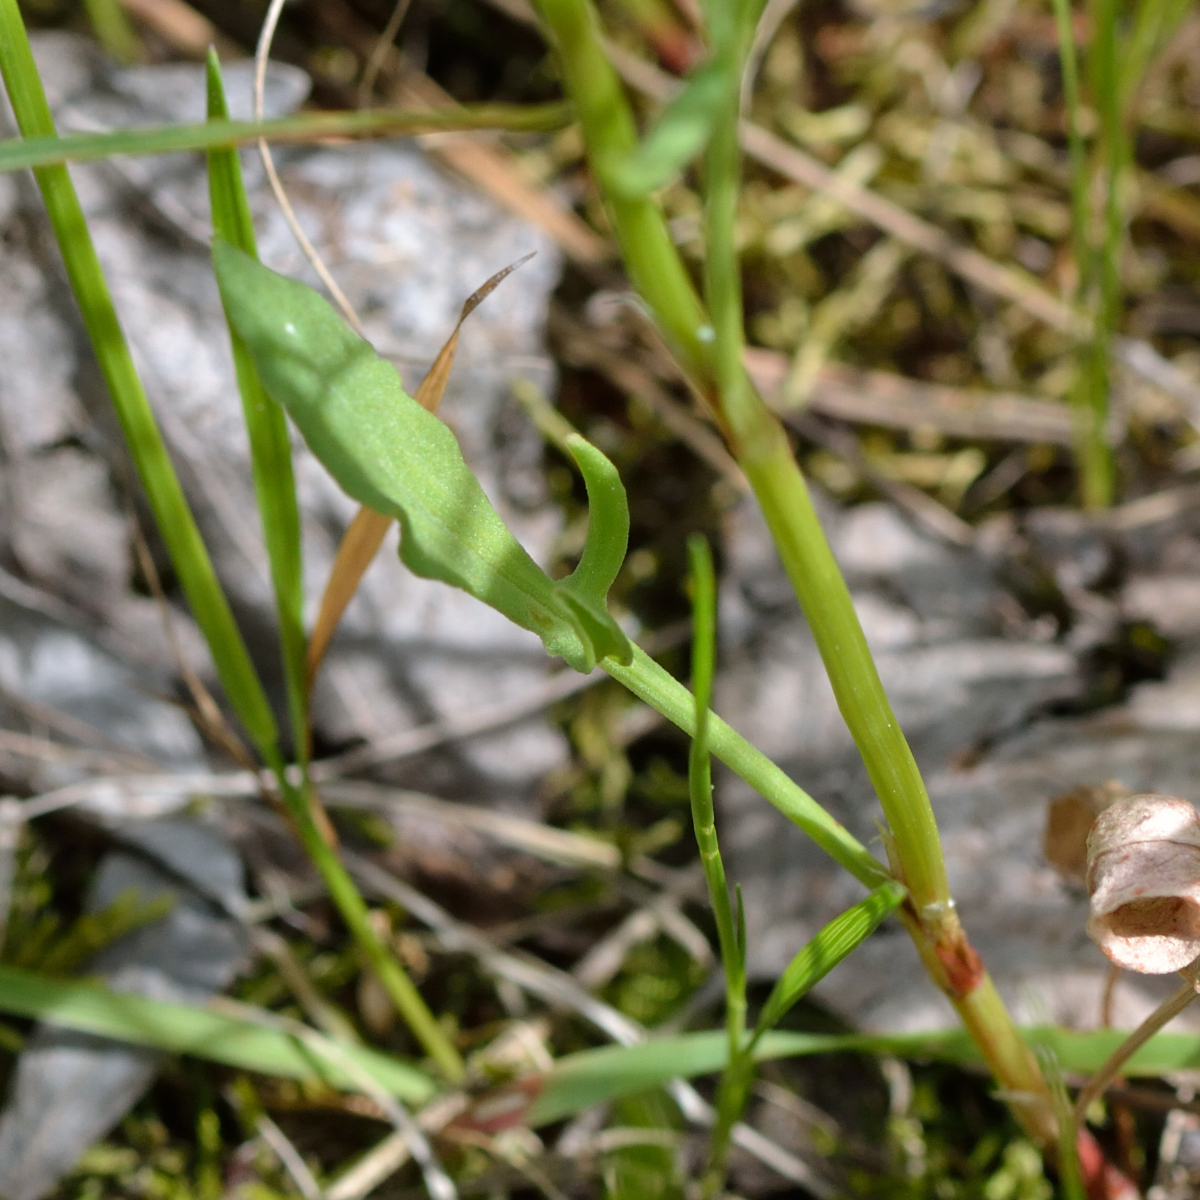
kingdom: Plantae
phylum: Tracheophyta
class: Magnoliopsida
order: Caryophyllales
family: Polygonaceae
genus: Rumex
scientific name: Rumex acetosella
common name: Common sheep sorrel
